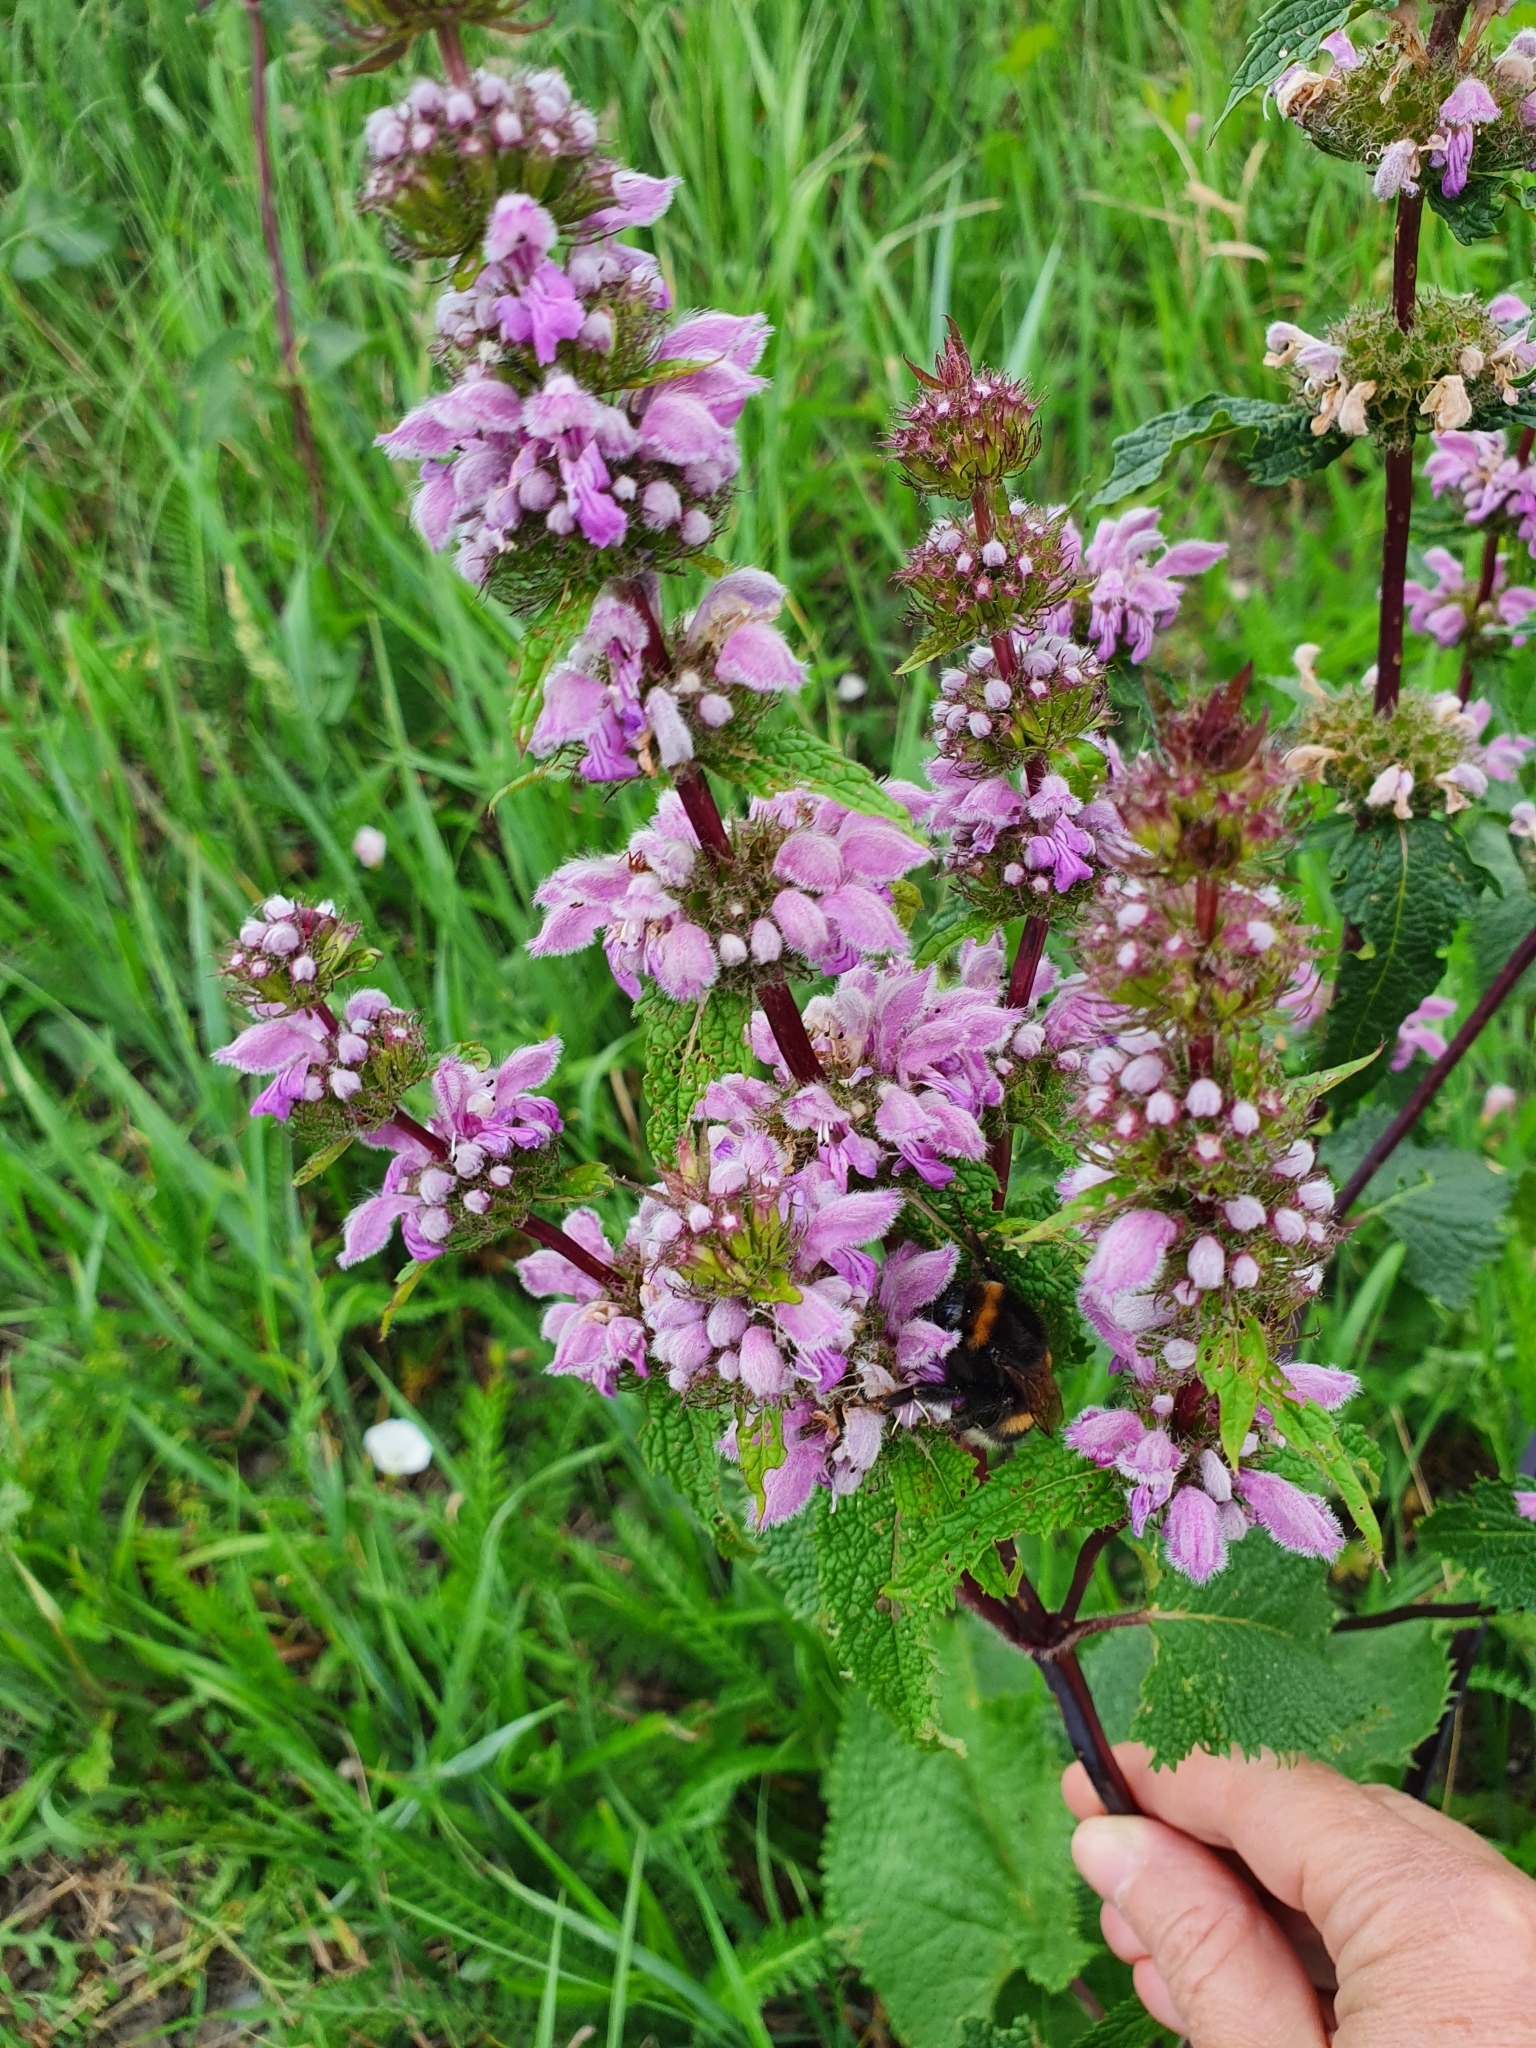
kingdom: Plantae
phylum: Tracheophyta
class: Magnoliopsida
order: Lamiales
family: Lamiaceae
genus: Phlomoides
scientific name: Phlomoides tuberosa
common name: Tuberous jerusalem sage
